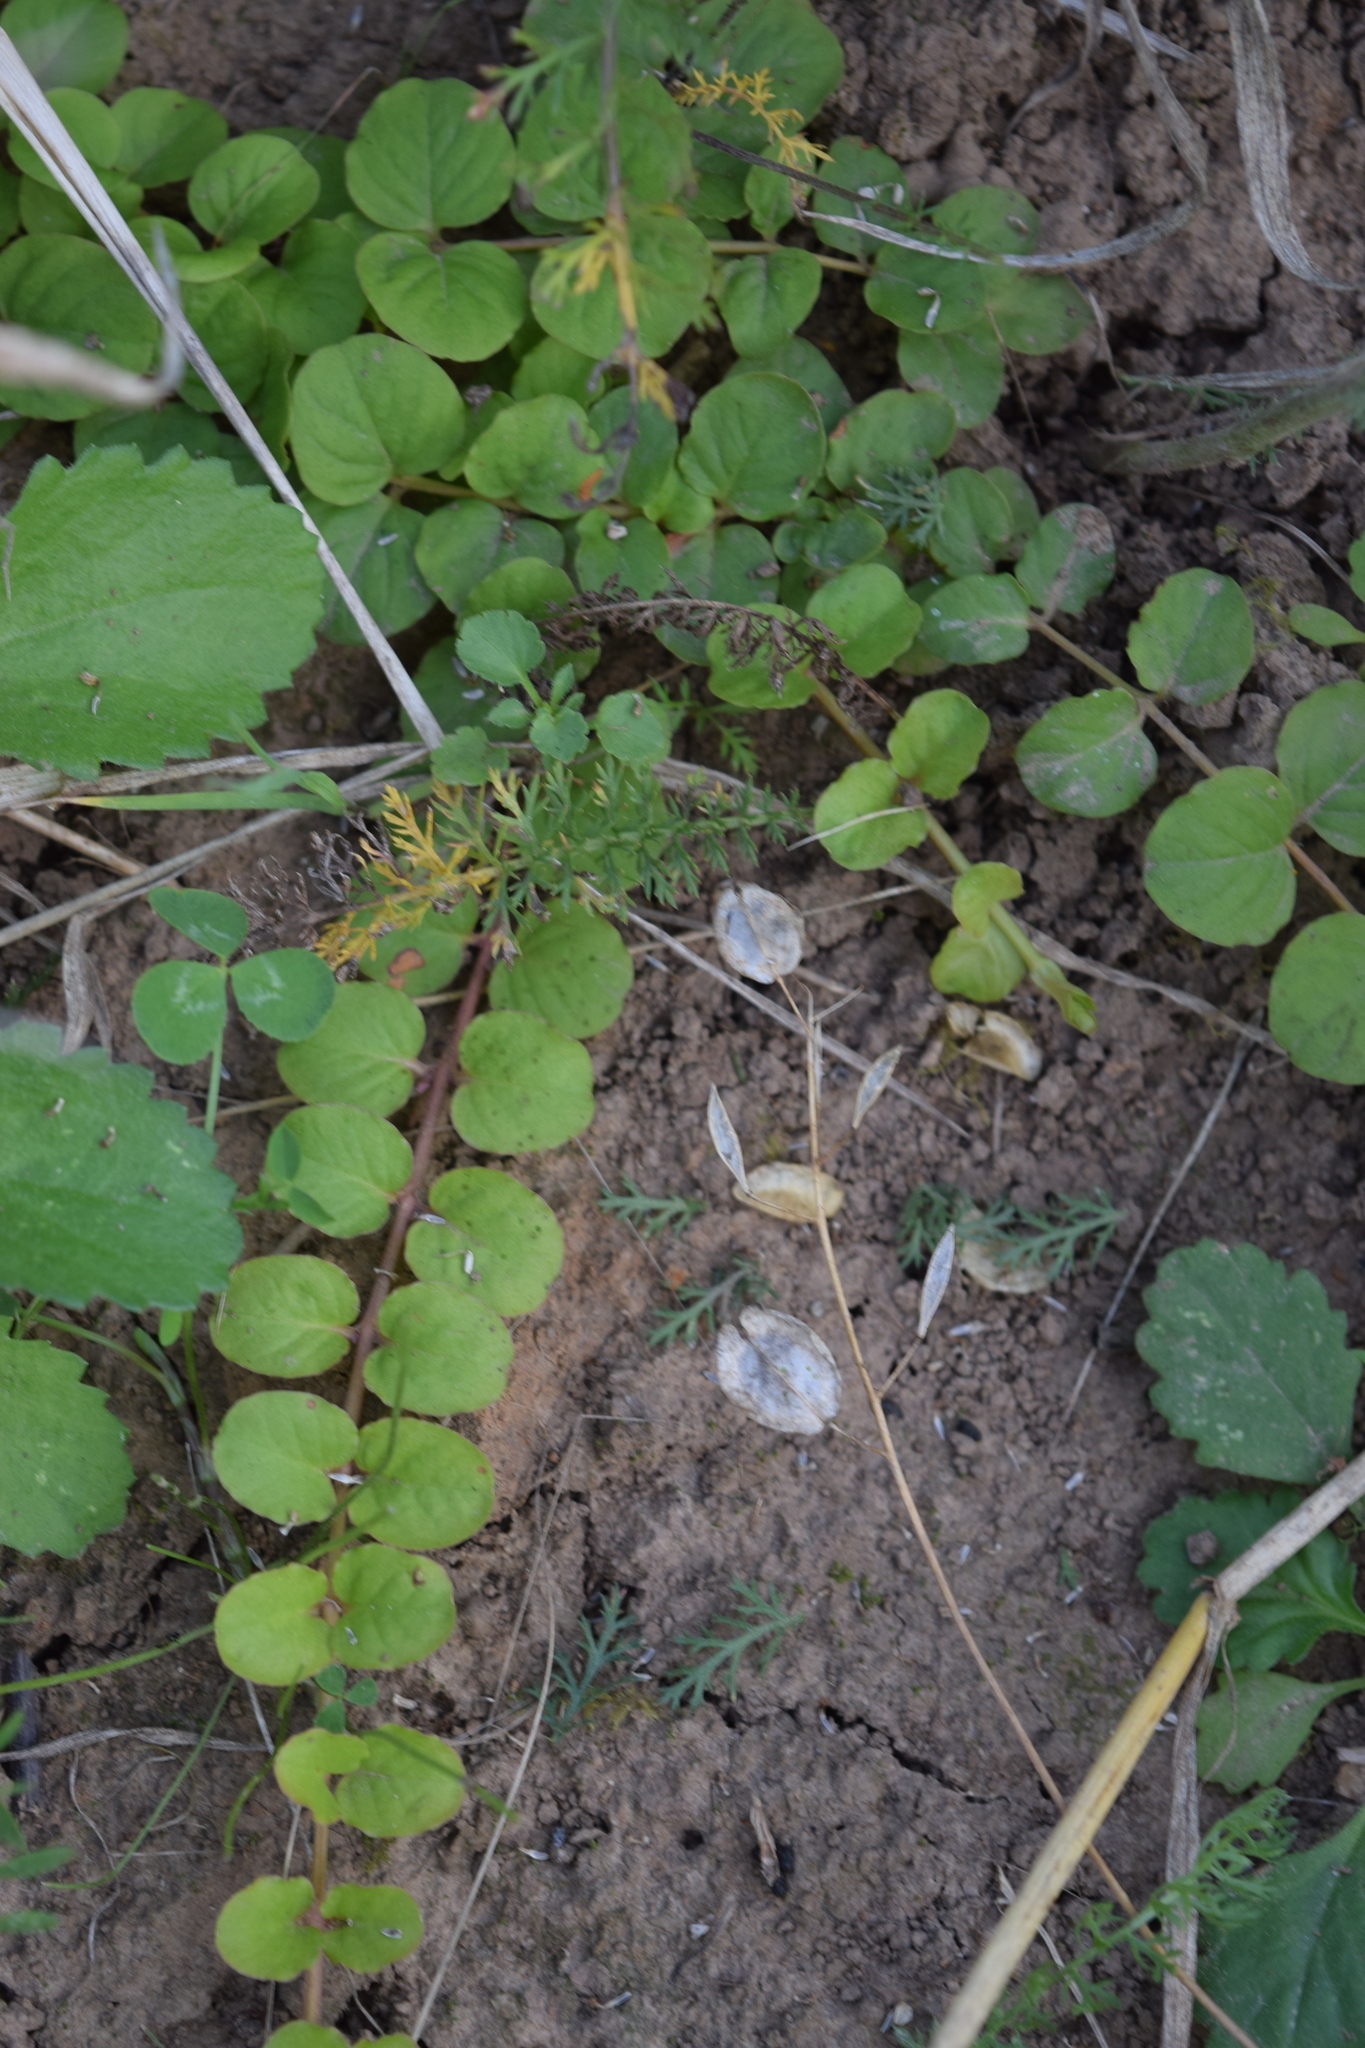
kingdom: Plantae
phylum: Tracheophyta
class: Magnoliopsida
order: Ericales
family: Primulaceae
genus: Lysimachia
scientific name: Lysimachia nummularia
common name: Moneywort
